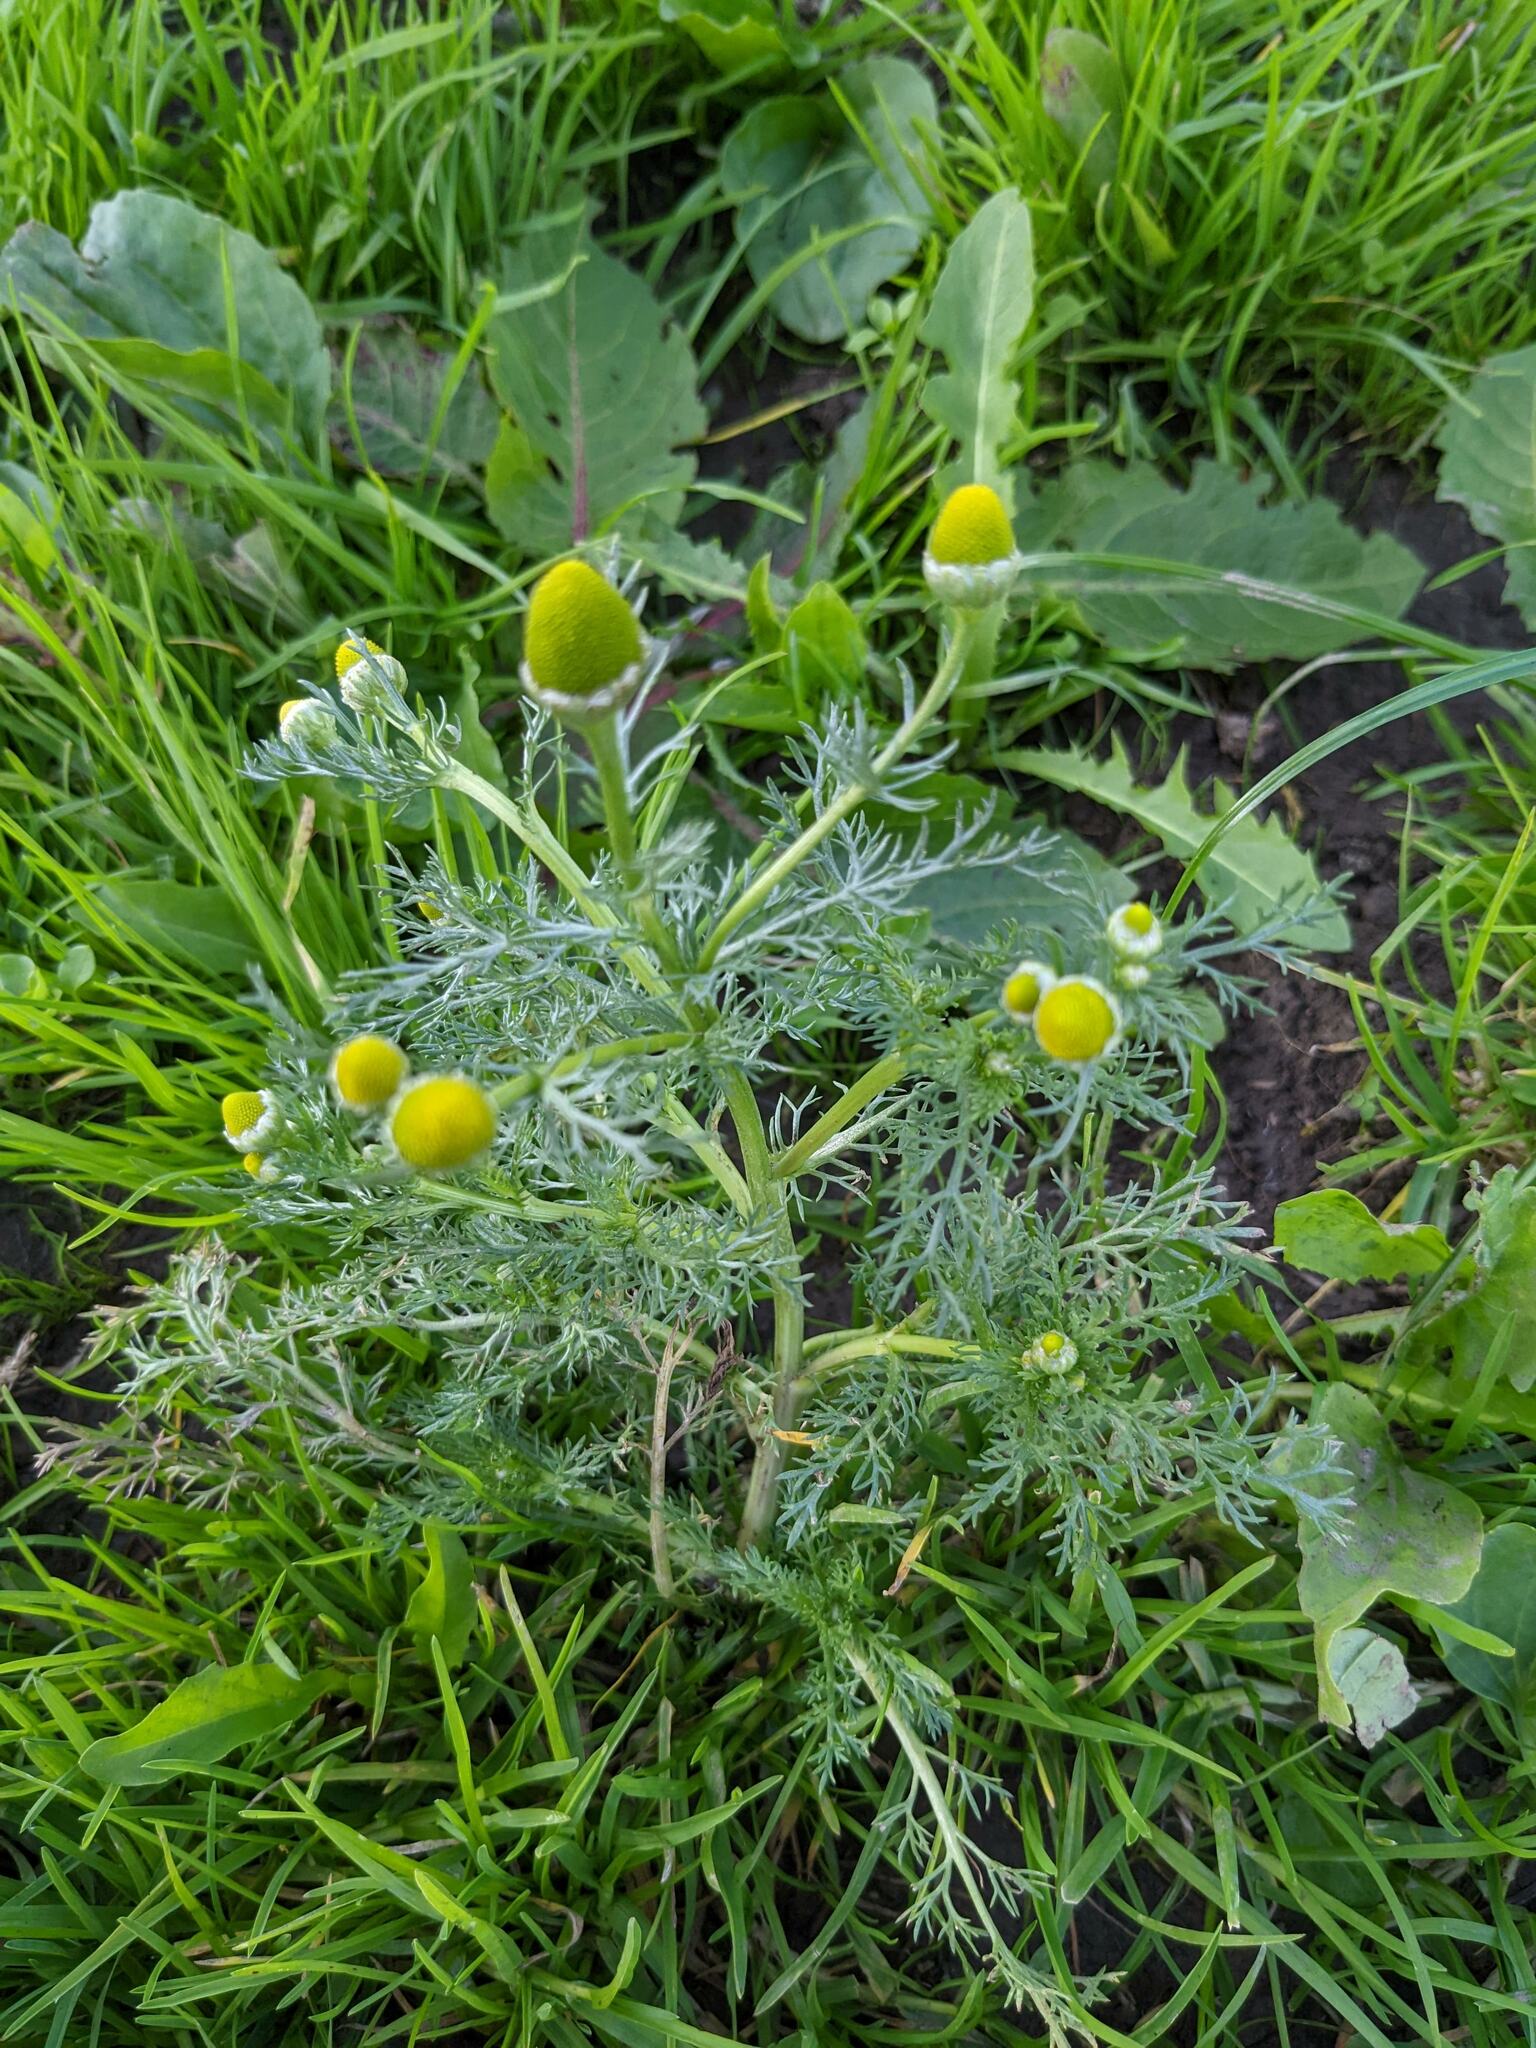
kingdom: Plantae
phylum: Tracheophyta
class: Magnoliopsida
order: Asterales
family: Asteraceae
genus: Matricaria
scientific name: Matricaria discoidea
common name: Disc mayweed
